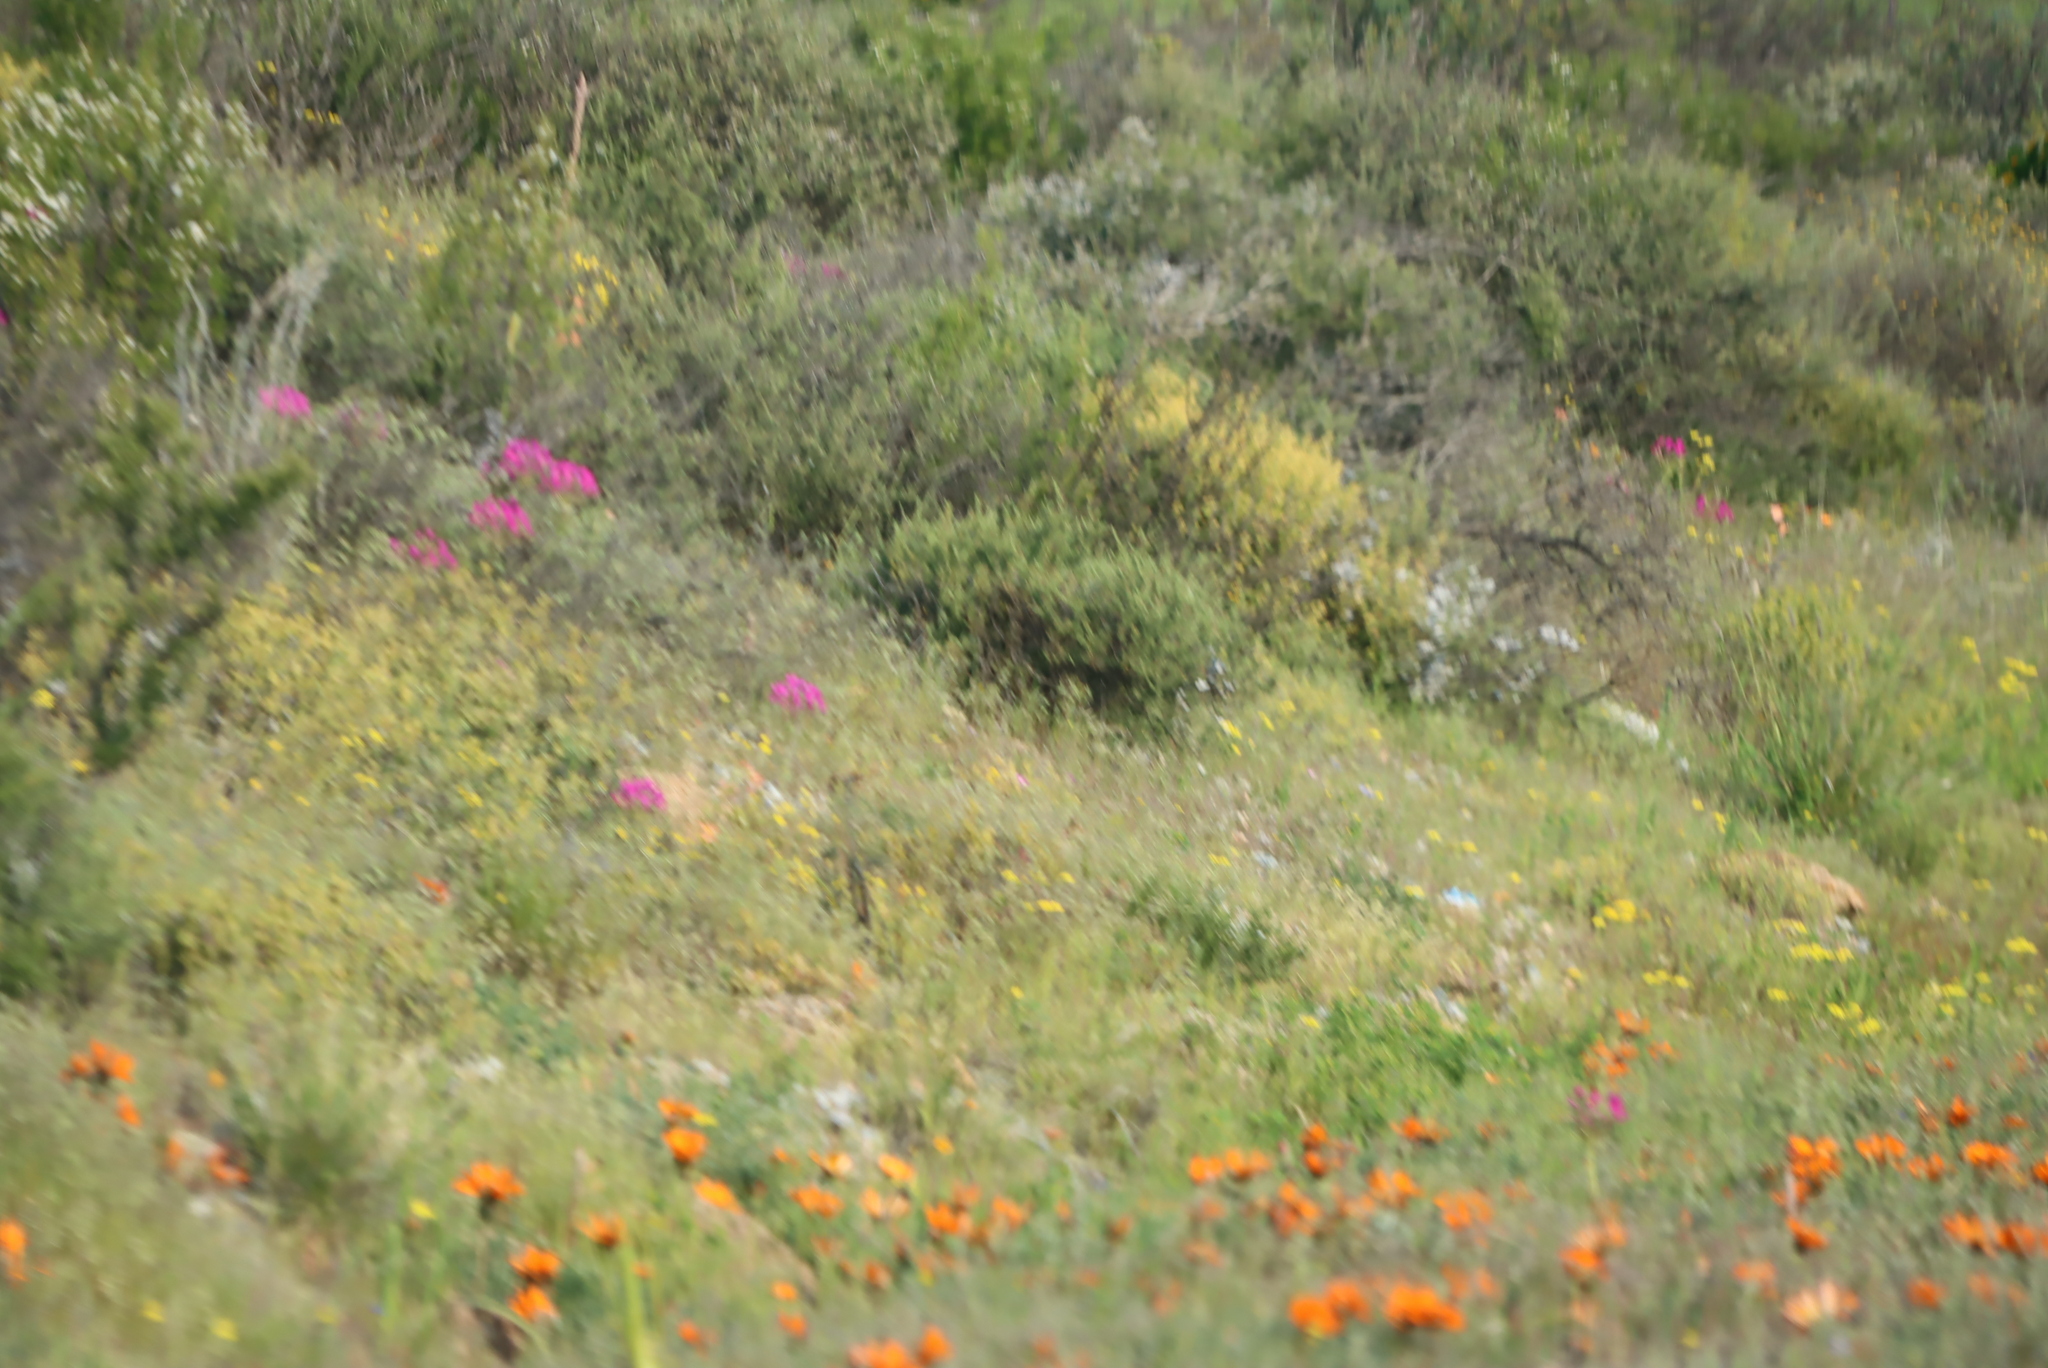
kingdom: Plantae
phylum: Tracheophyta
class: Magnoliopsida
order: Geraniales
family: Geraniaceae
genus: Pelargonium
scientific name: Pelargonium incrassatum
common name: Namaqualand beauty
